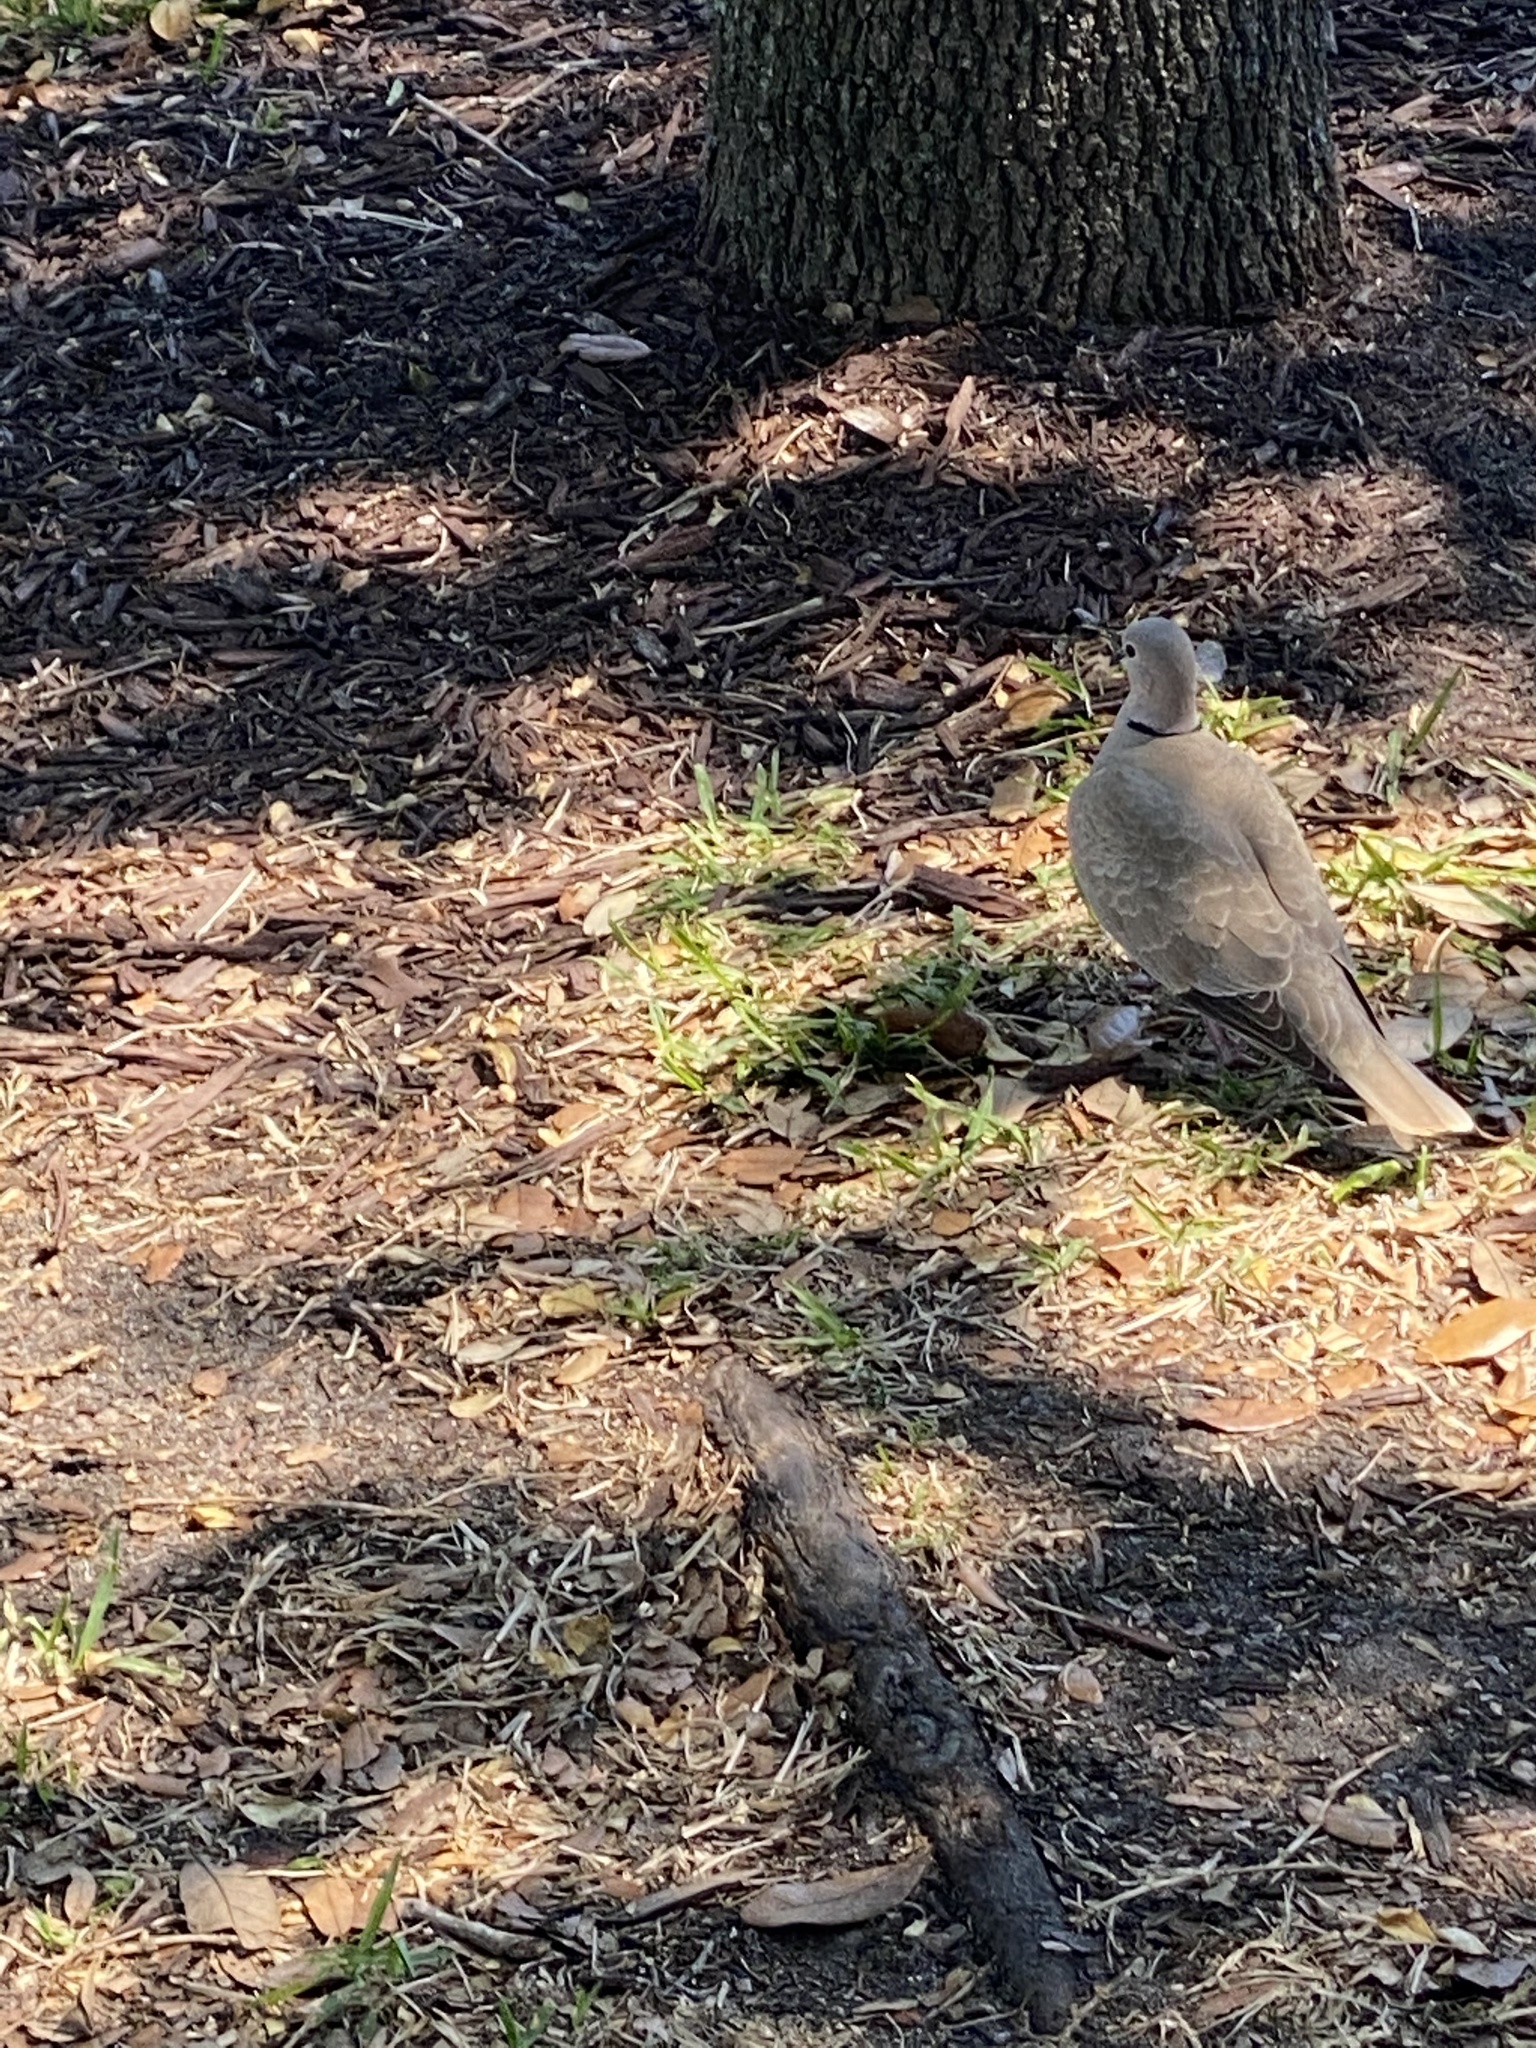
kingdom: Animalia
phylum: Chordata
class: Aves
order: Columbiformes
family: Columbidae
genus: Streptopelia
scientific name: Streptopelia decaocto
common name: Eurasian collared dove
